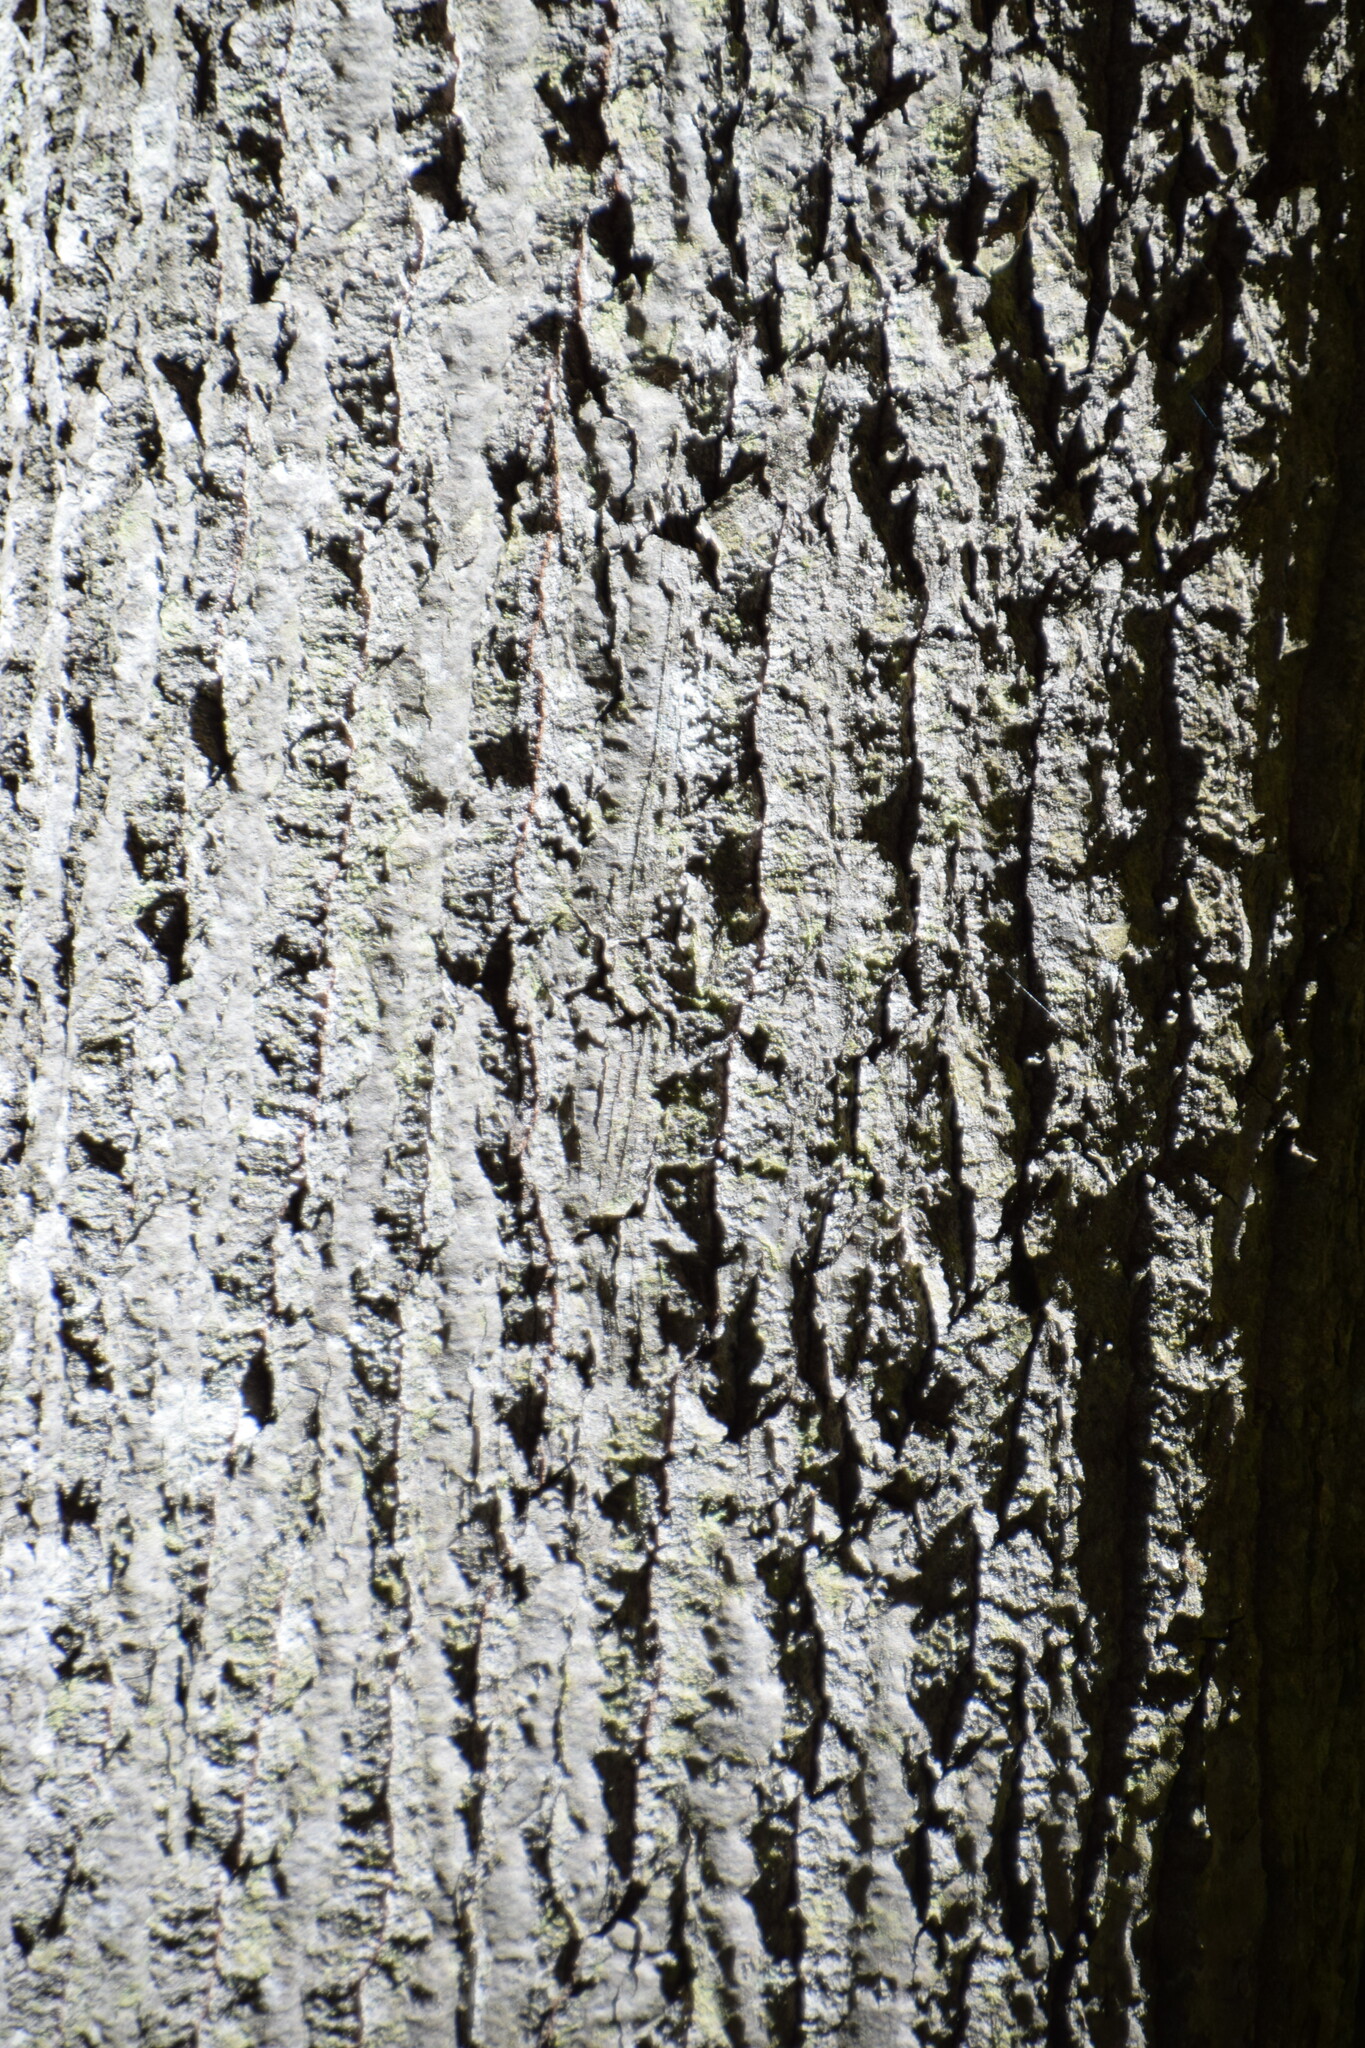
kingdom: Plantae
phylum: Tracheophyta
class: Magnoliopsida
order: Malpighiales
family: Salicaceae
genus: Populus
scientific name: Populus grandidentata
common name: Bigtooth aspen
